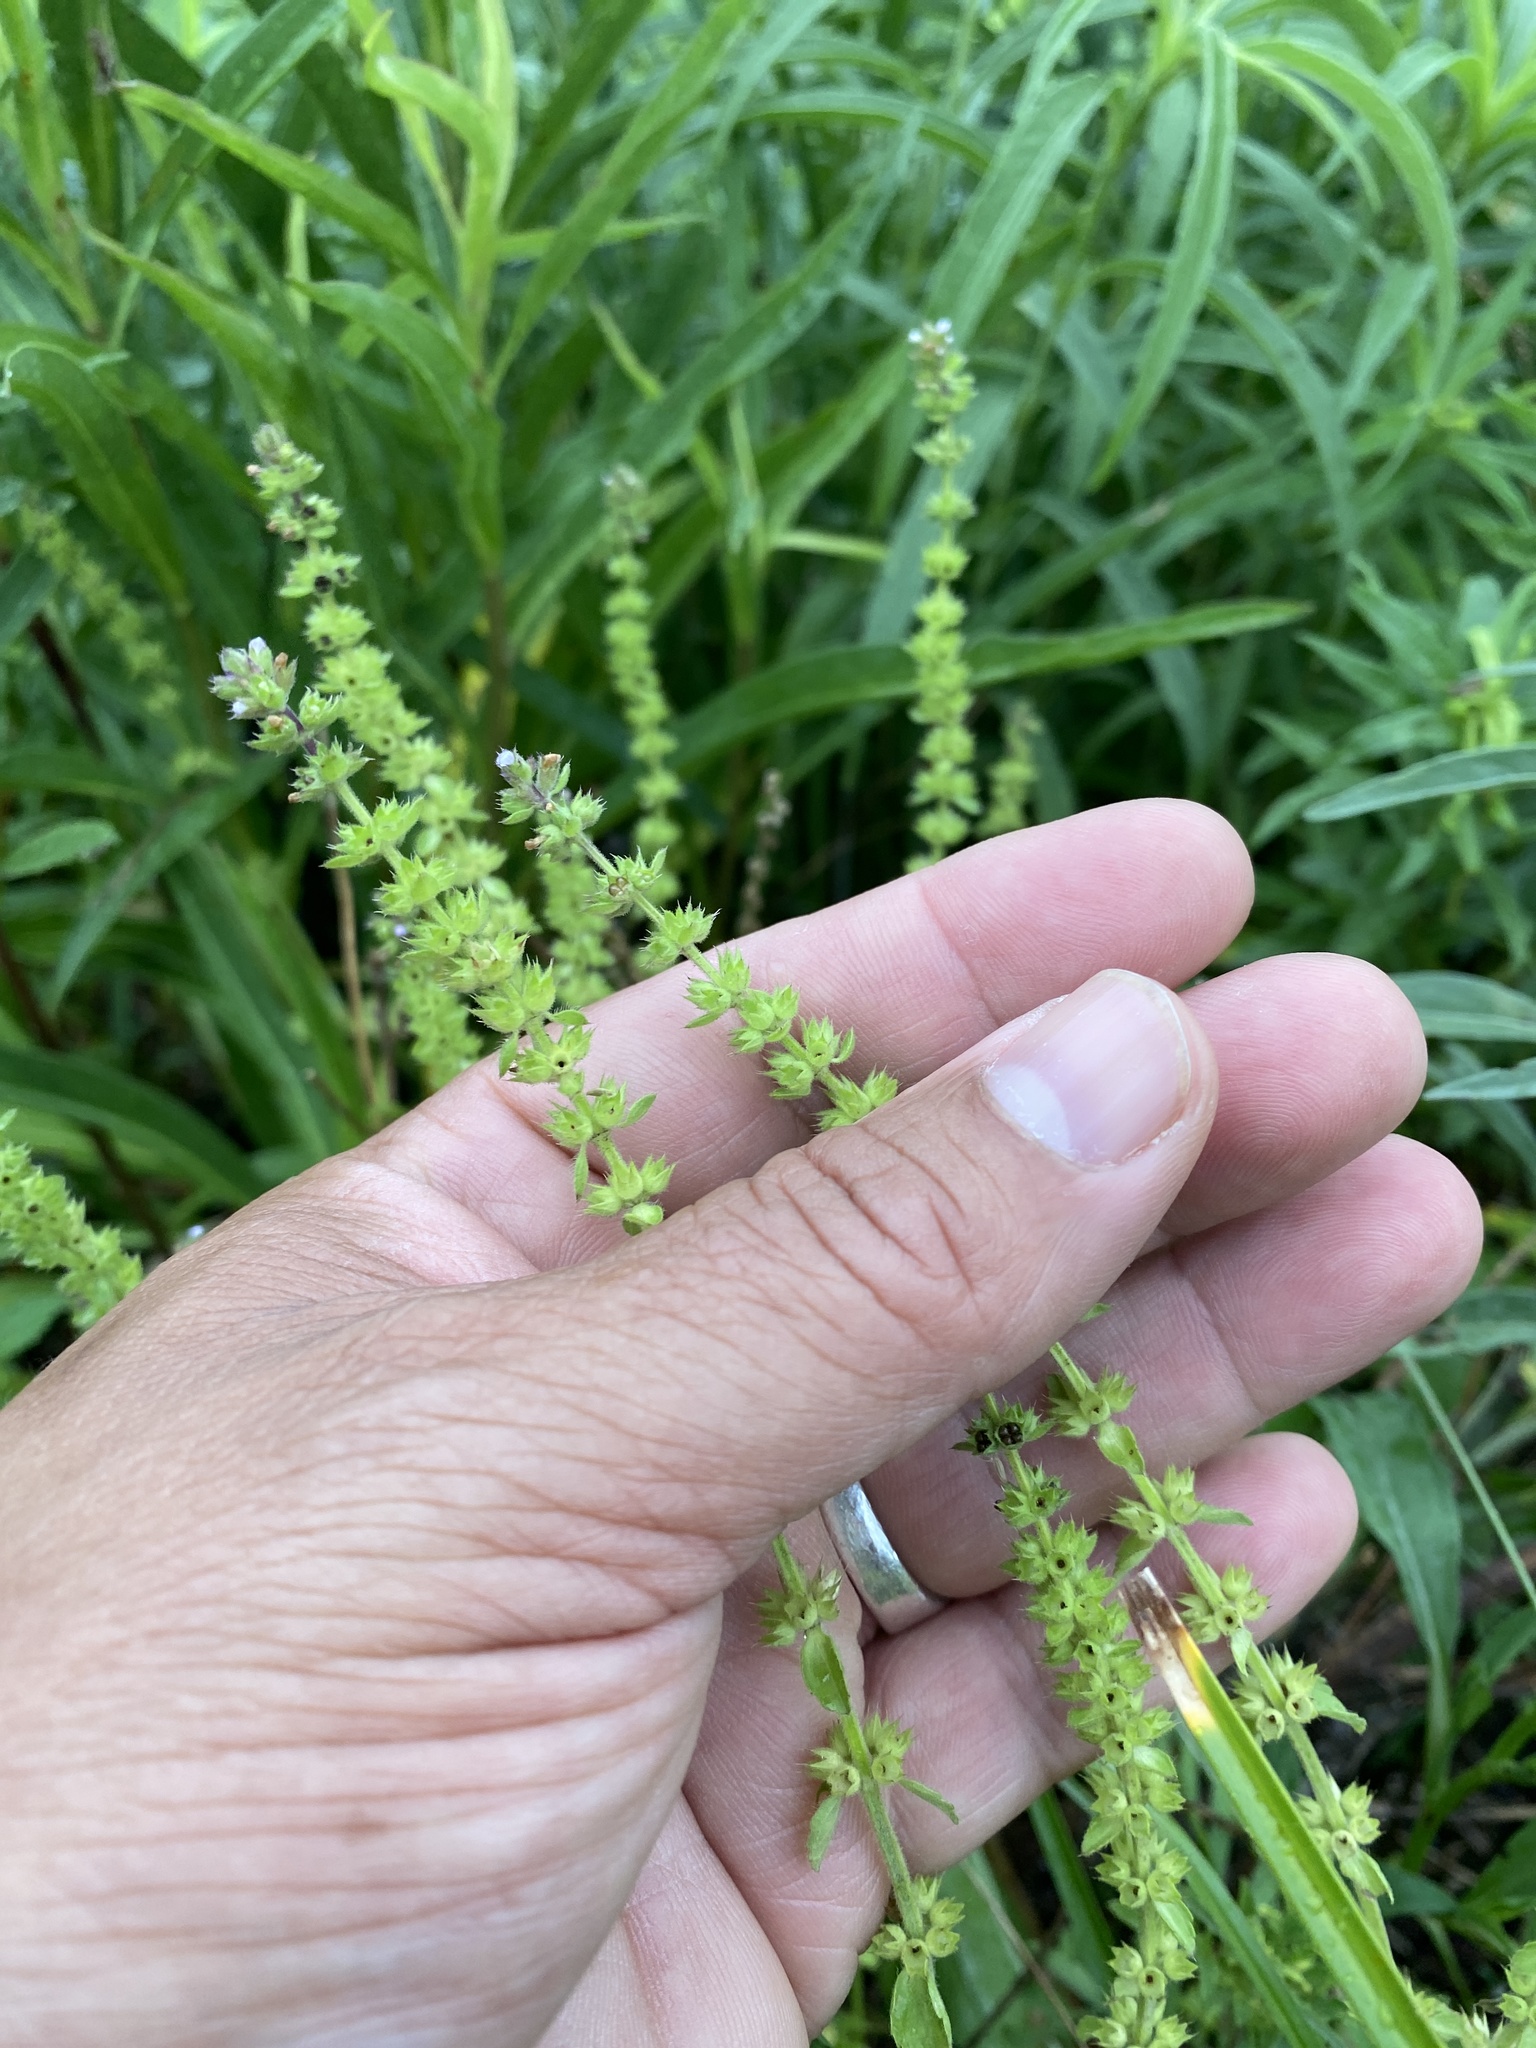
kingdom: Plantae
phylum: Tracheophyta
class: Magnoliopsida
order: Lamiales
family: Lamiaceae
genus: Stachys
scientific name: Stachys
